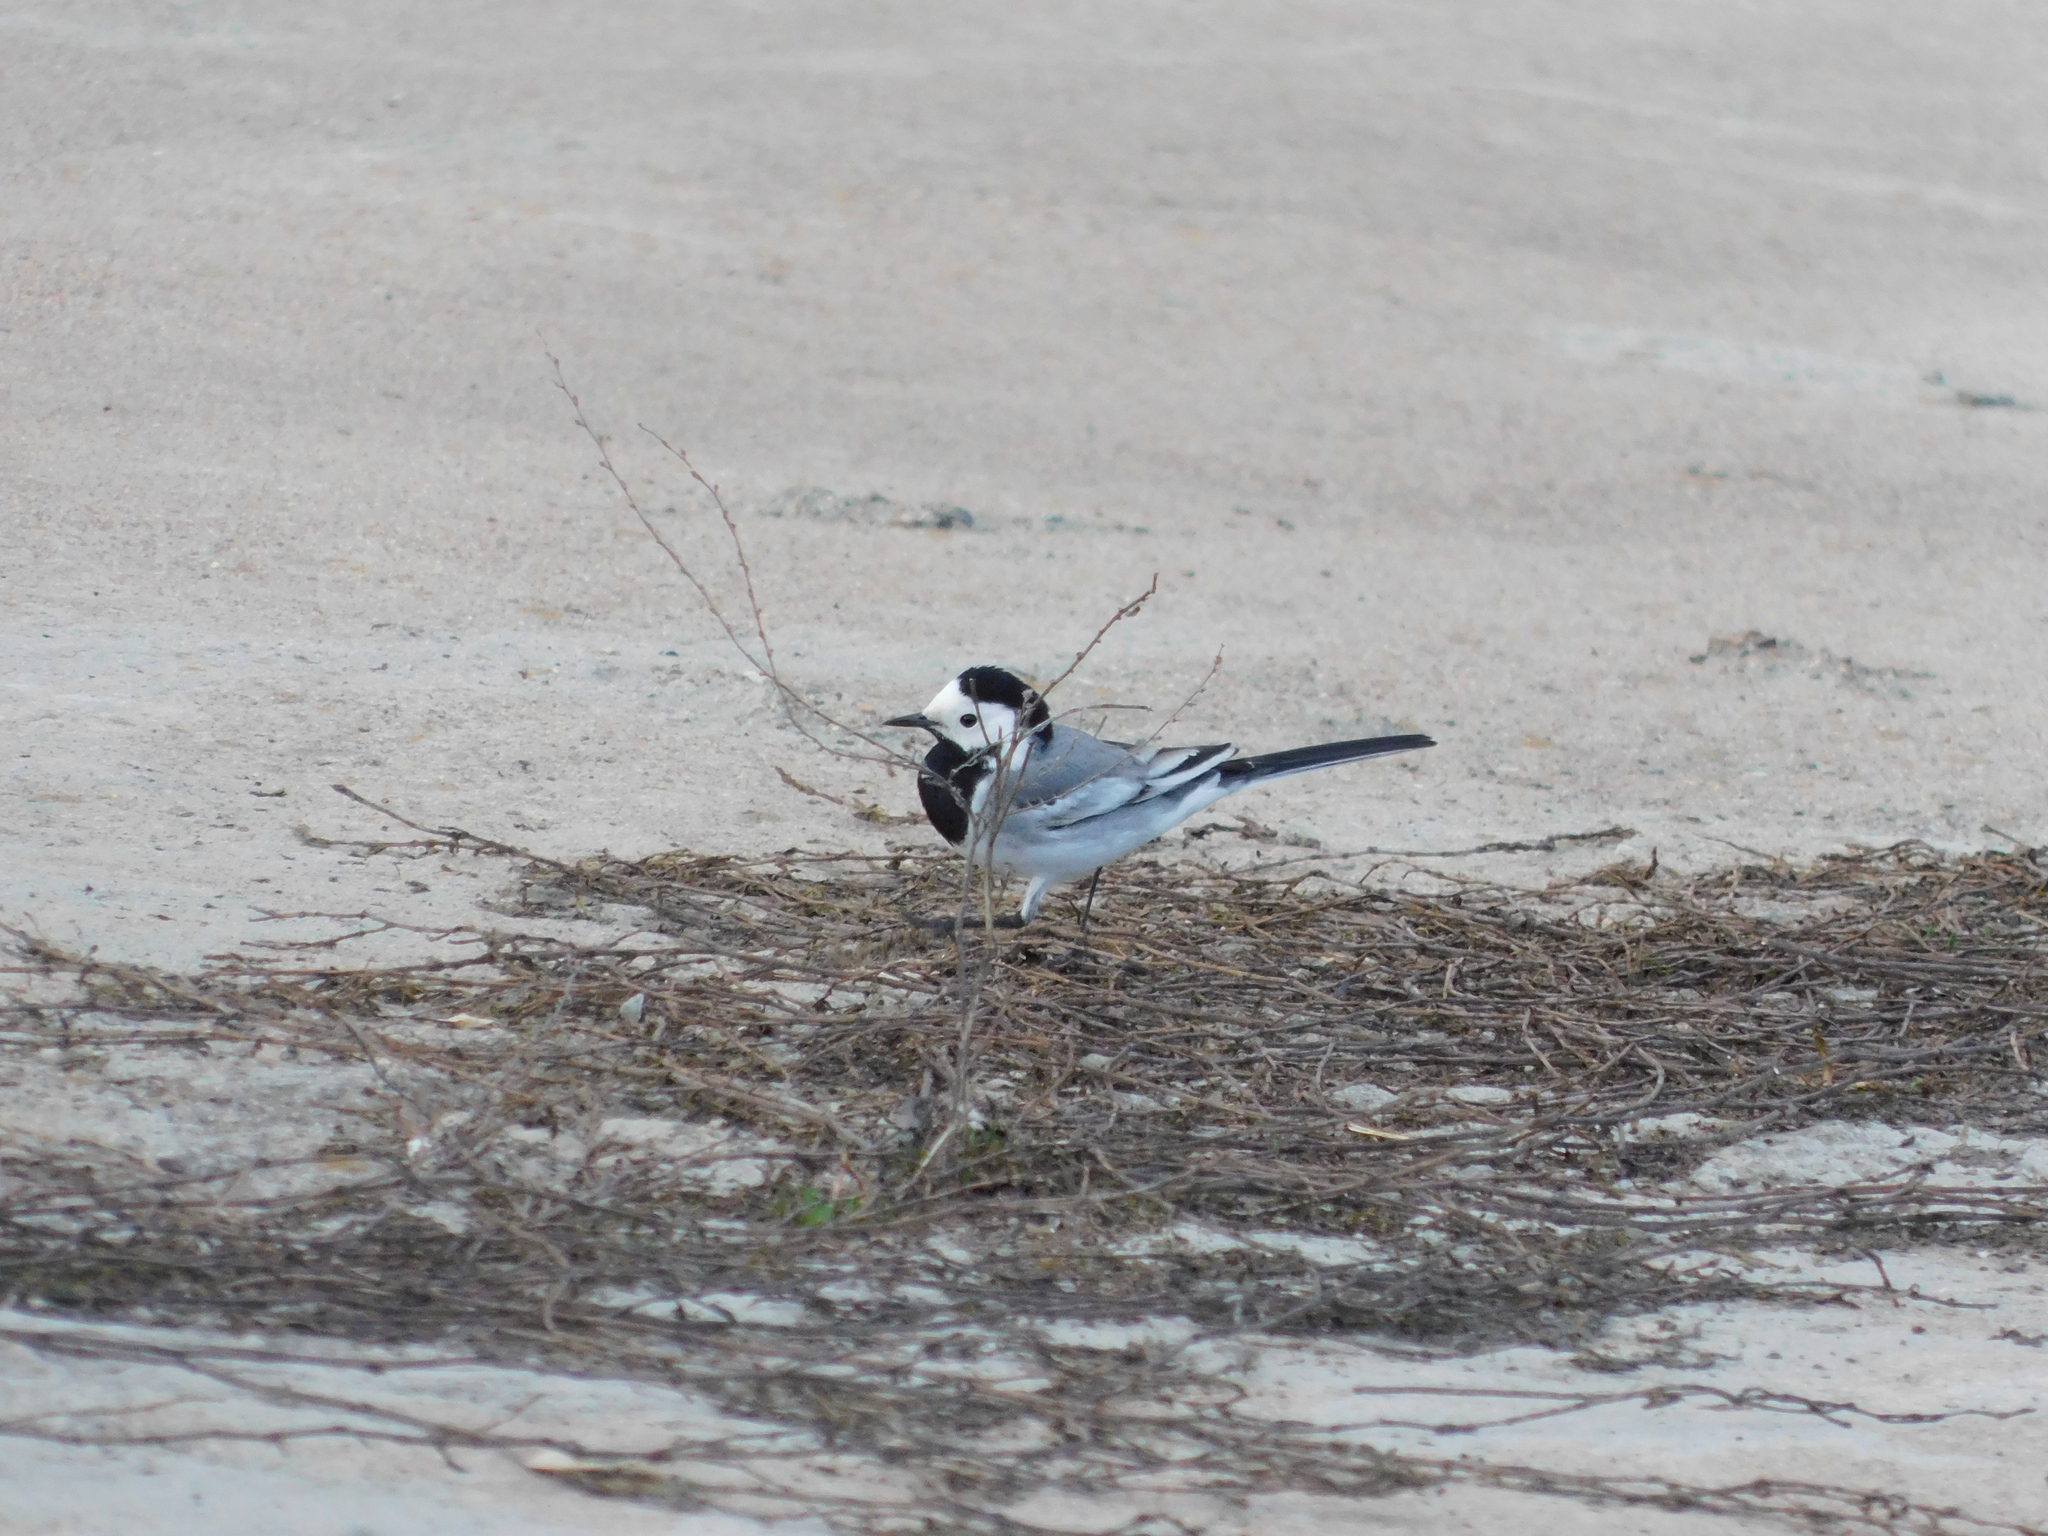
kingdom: Animalia
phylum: Chordata
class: Aves
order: Passeriformes
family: Motacillidae
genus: Motacilla
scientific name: Motacilla alba
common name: White wagtail
